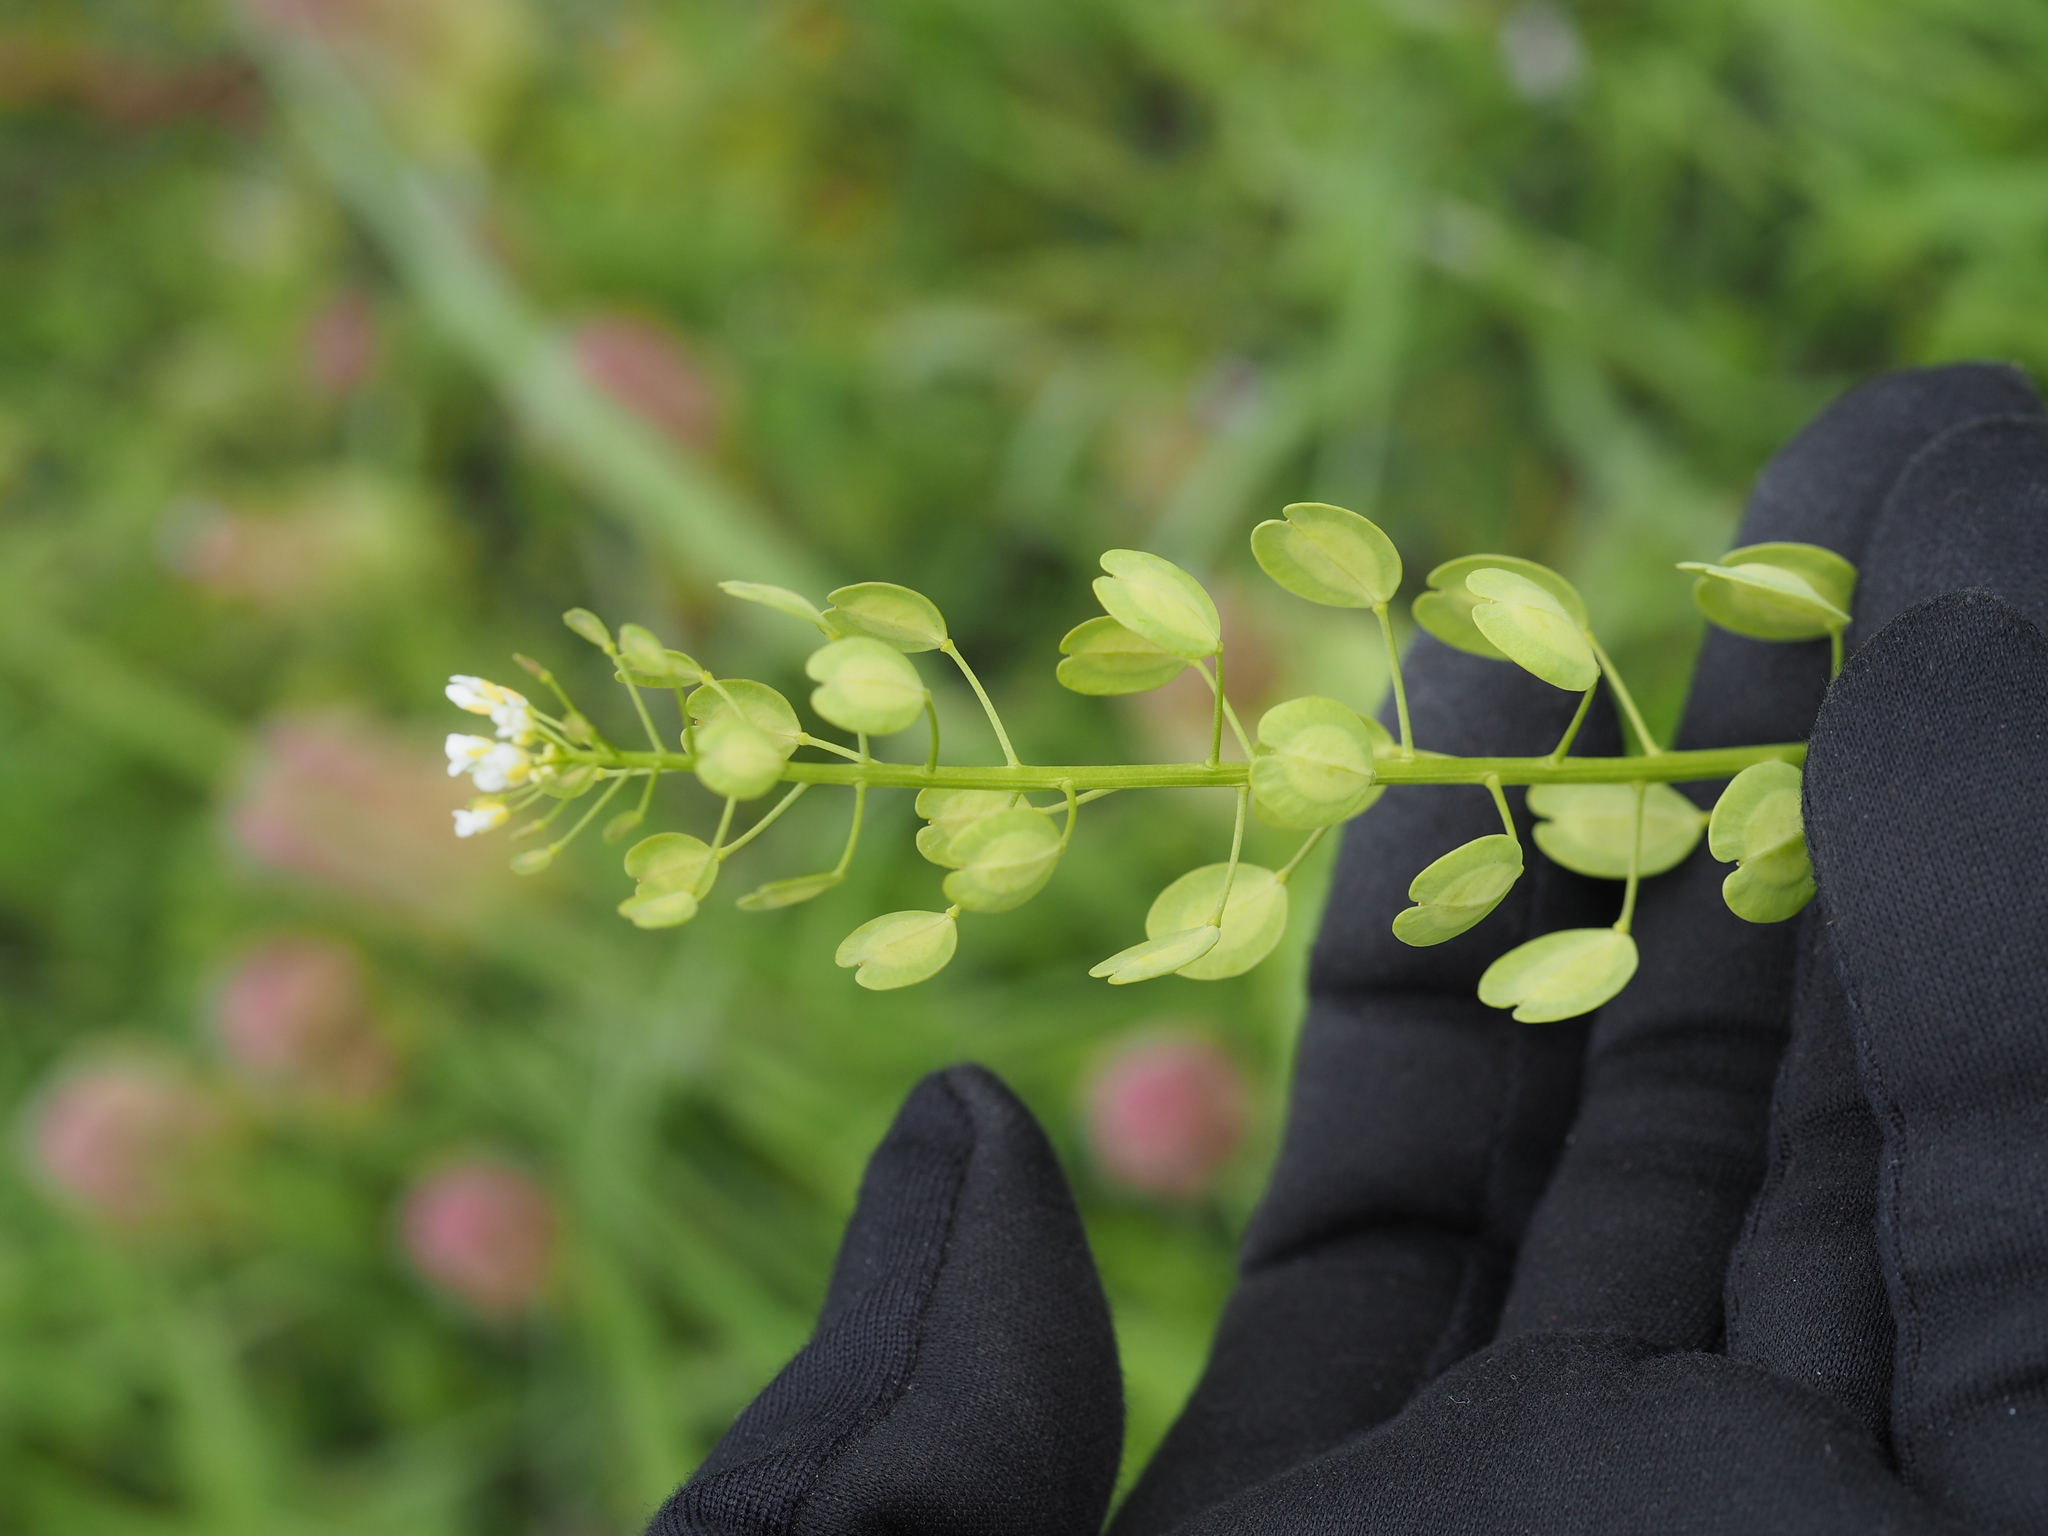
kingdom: Plantae
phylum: Tracheophyta
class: Magnoliopsida
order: Brassicales
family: Brassicaceae
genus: Thlaspi
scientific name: Thlaspi arvense
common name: Field pennycress
